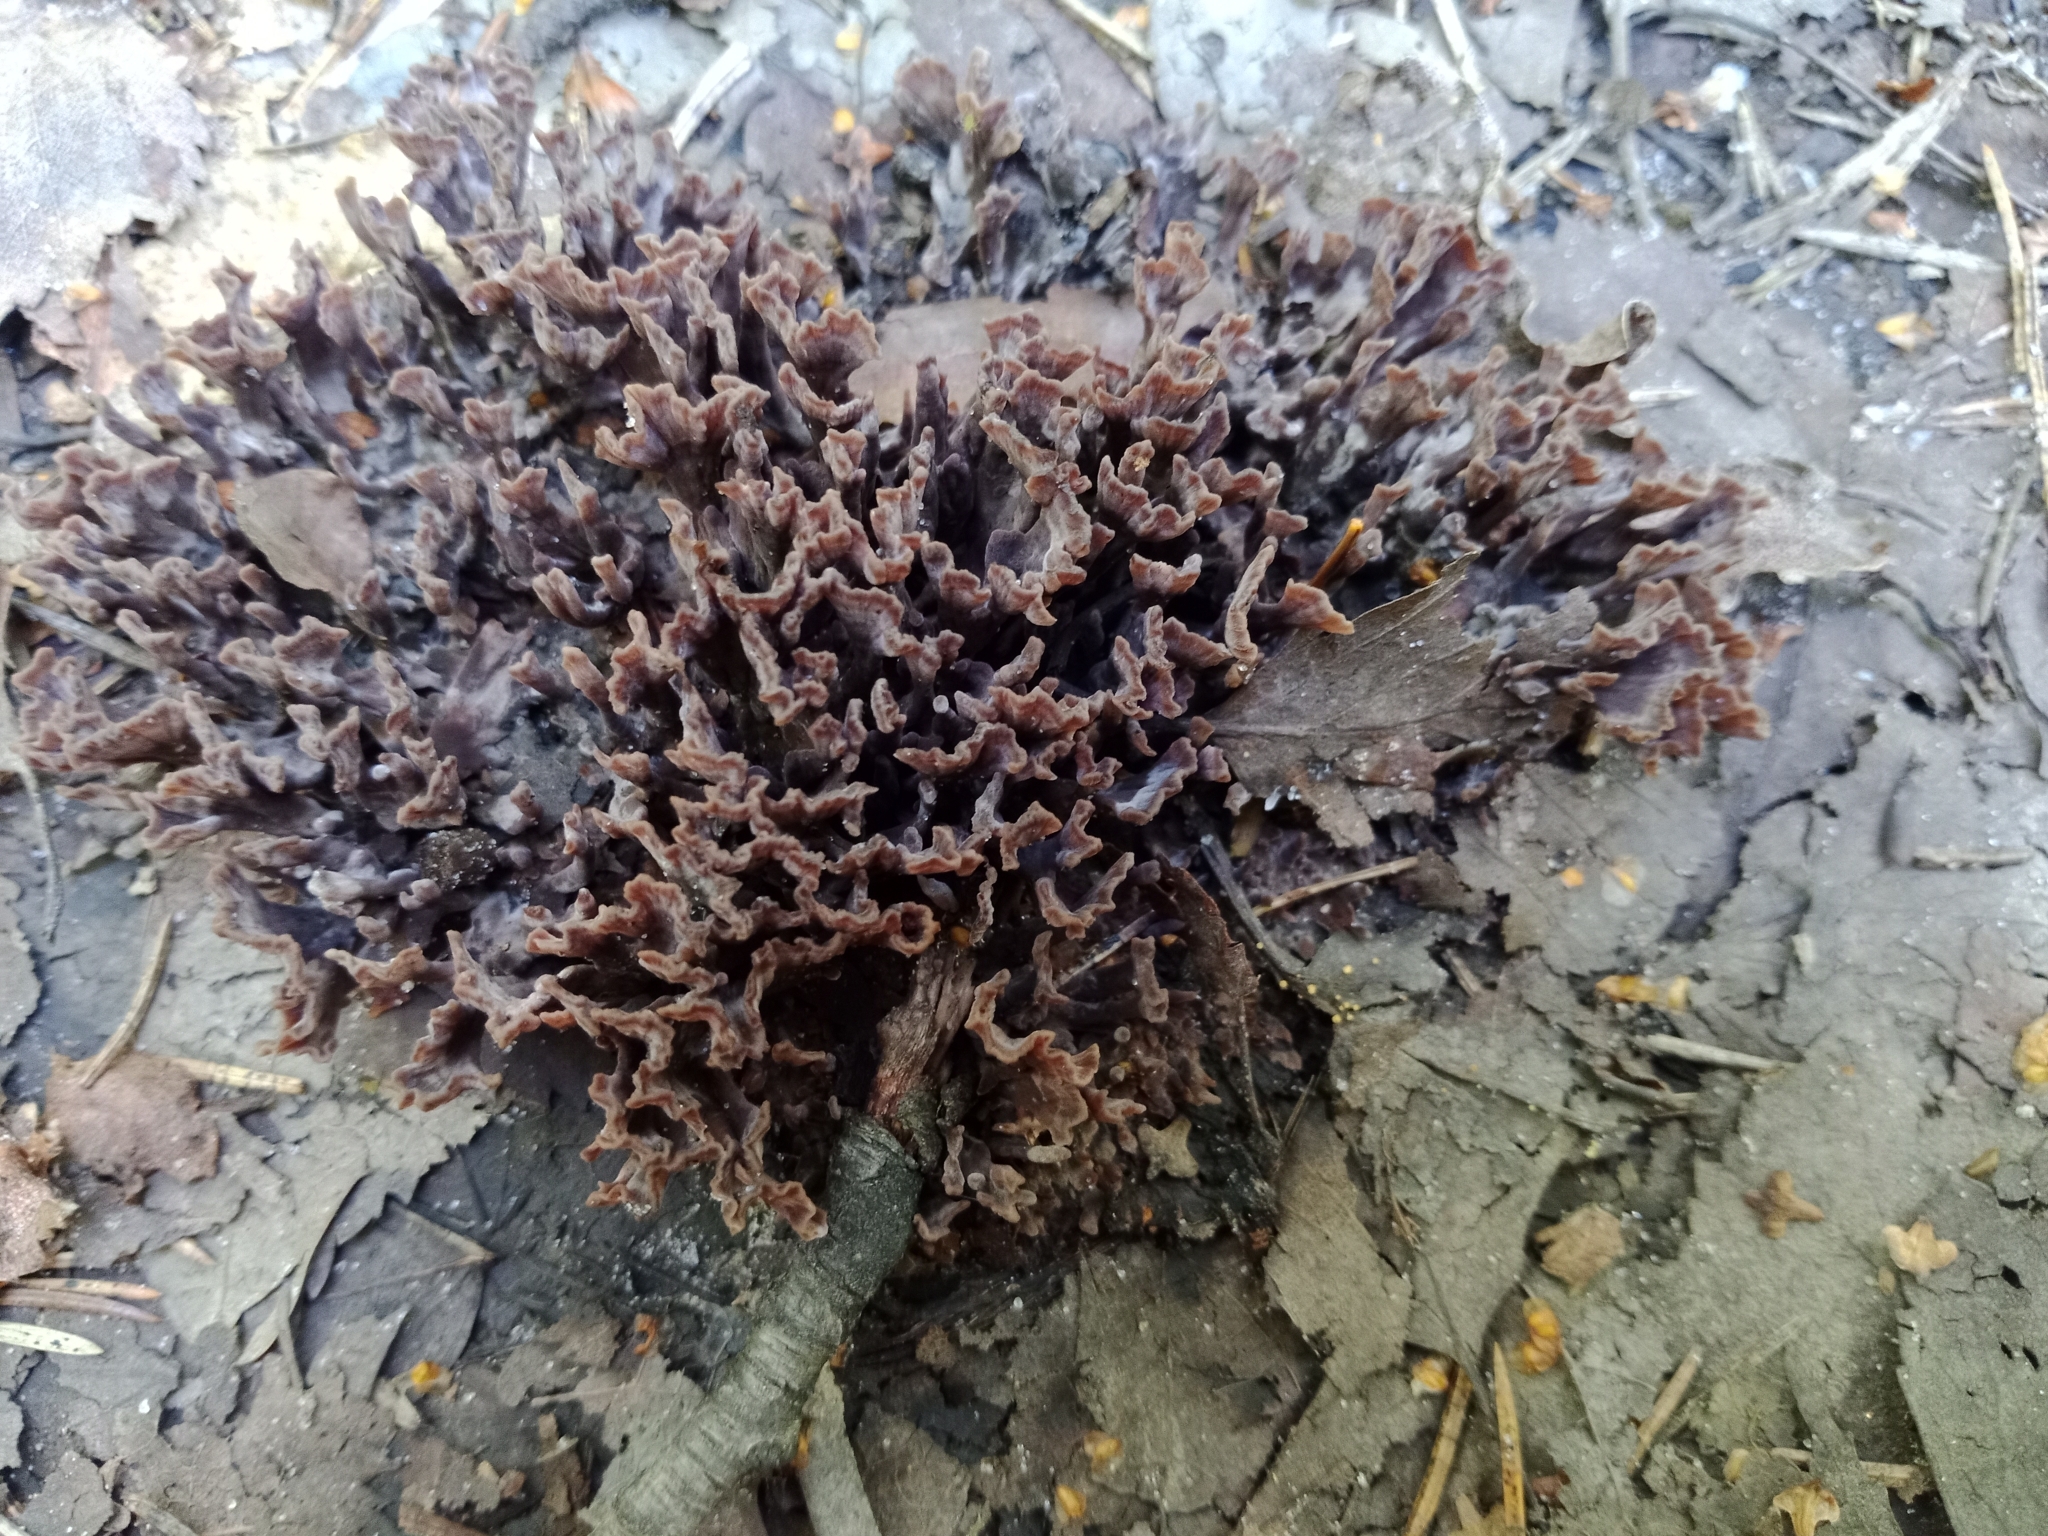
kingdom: Fungi
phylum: Basidiomycota
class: Agaricomycetes
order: Thelephorales
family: Thelephoraceae
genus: Thelephora
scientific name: Thelephora palmata
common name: Stinking earthfan
